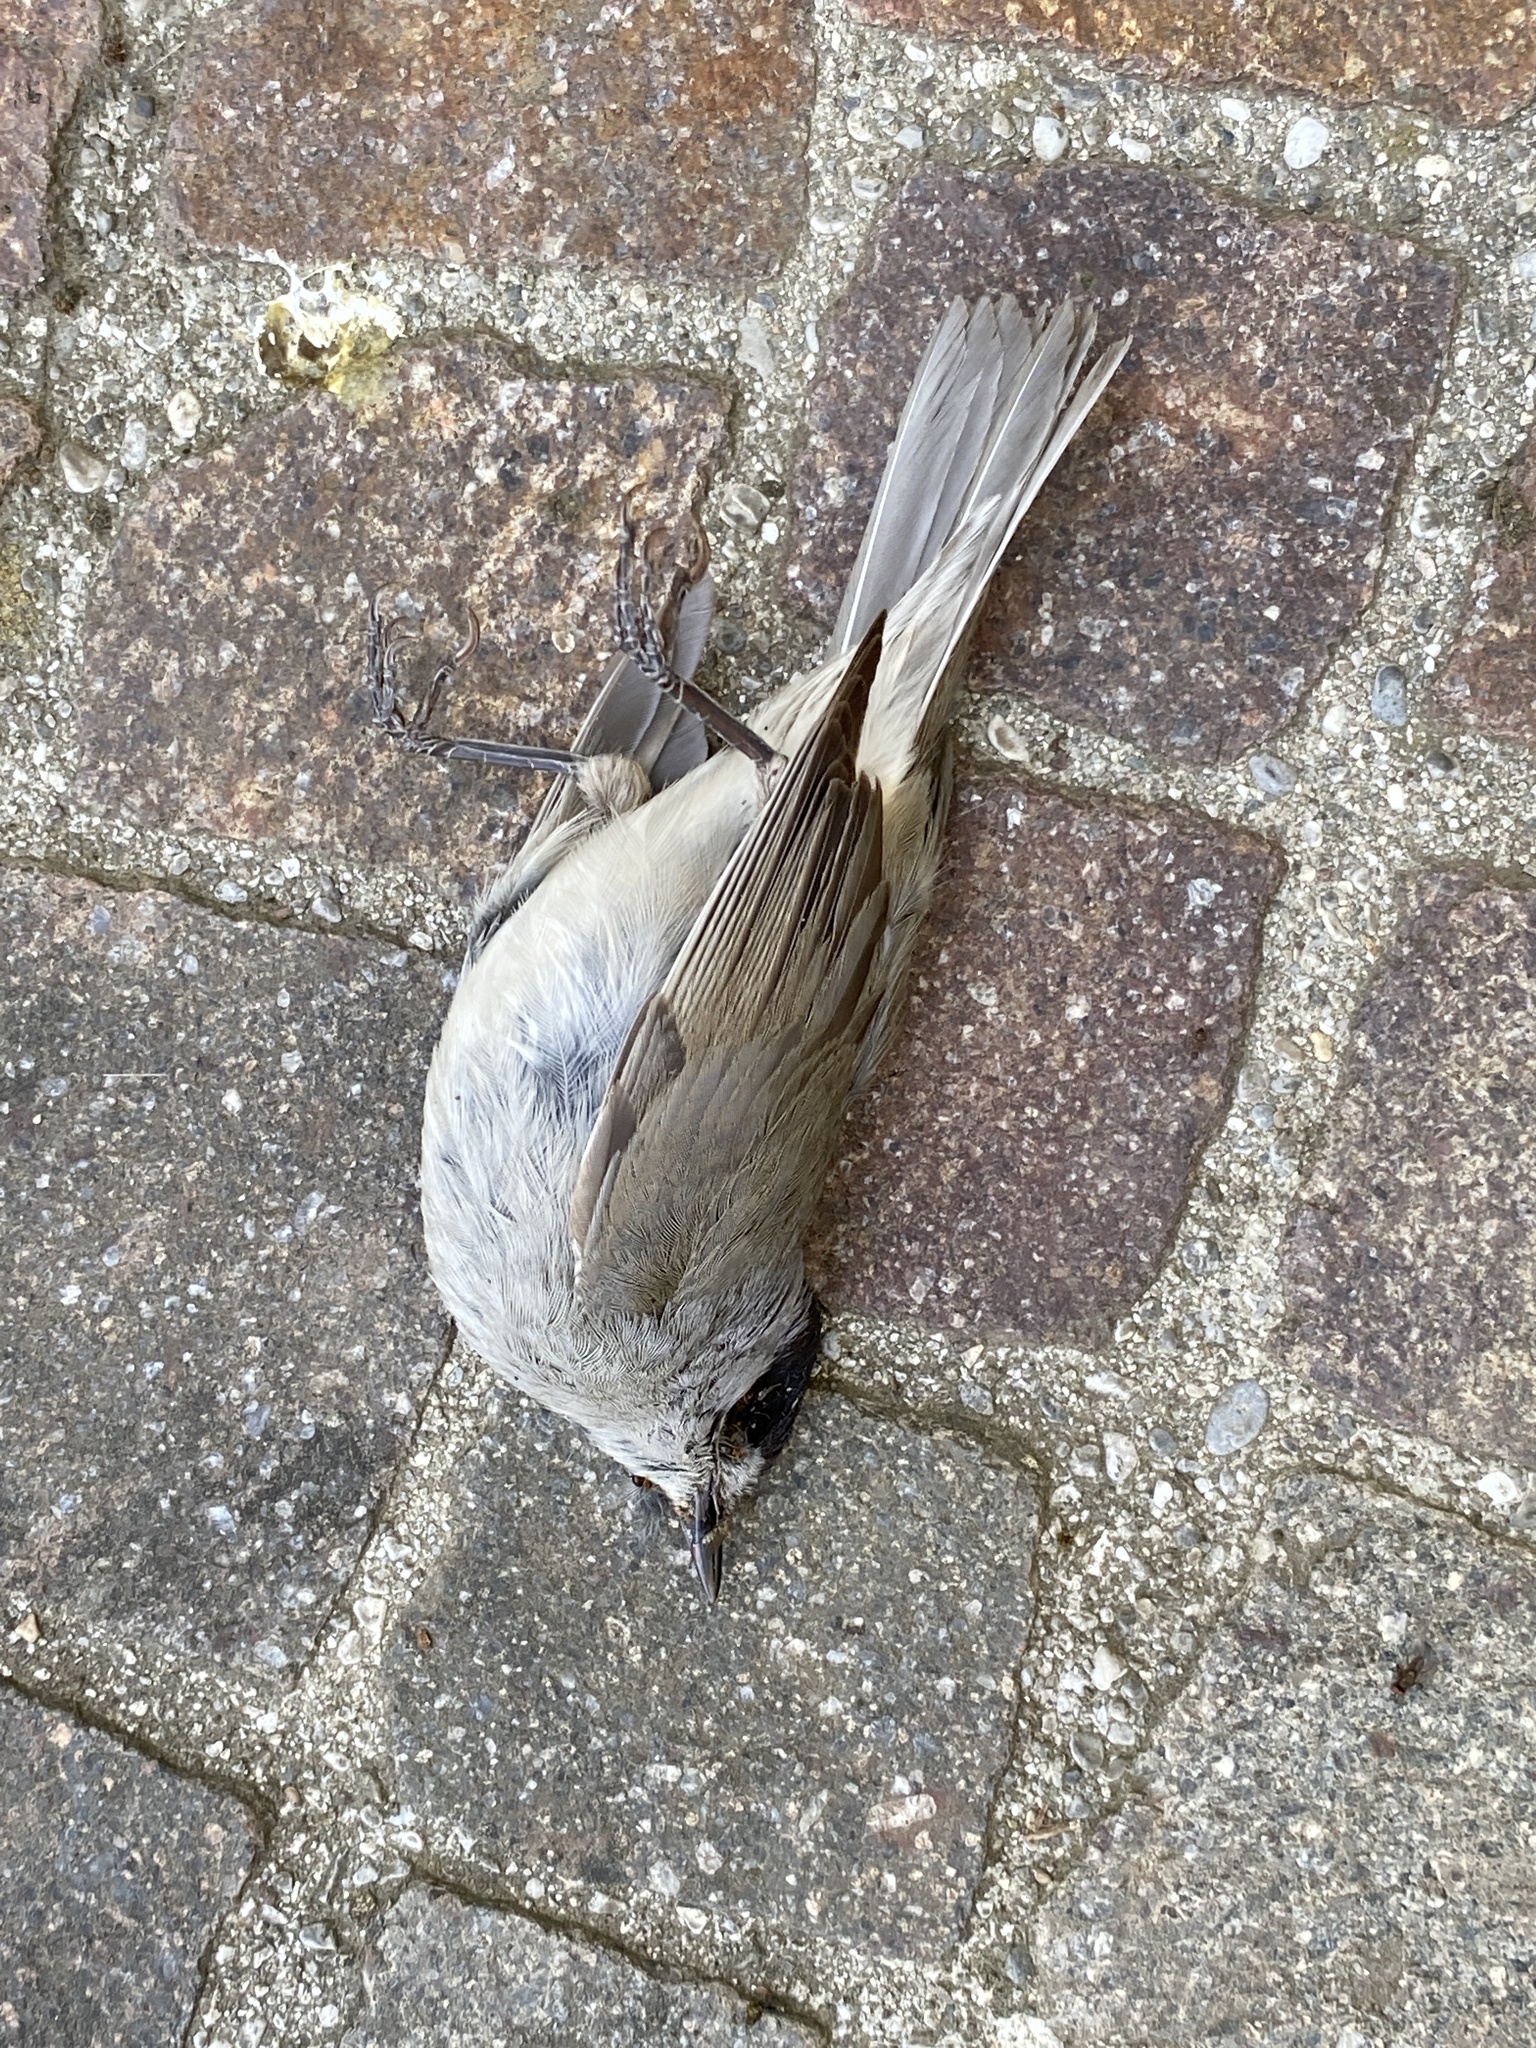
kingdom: Animalia
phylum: Chordata
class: Aves
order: Passeriformes
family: Sylviidae
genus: Sylvia
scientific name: Sylvia atricapilla
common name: Eurasian blackcap
